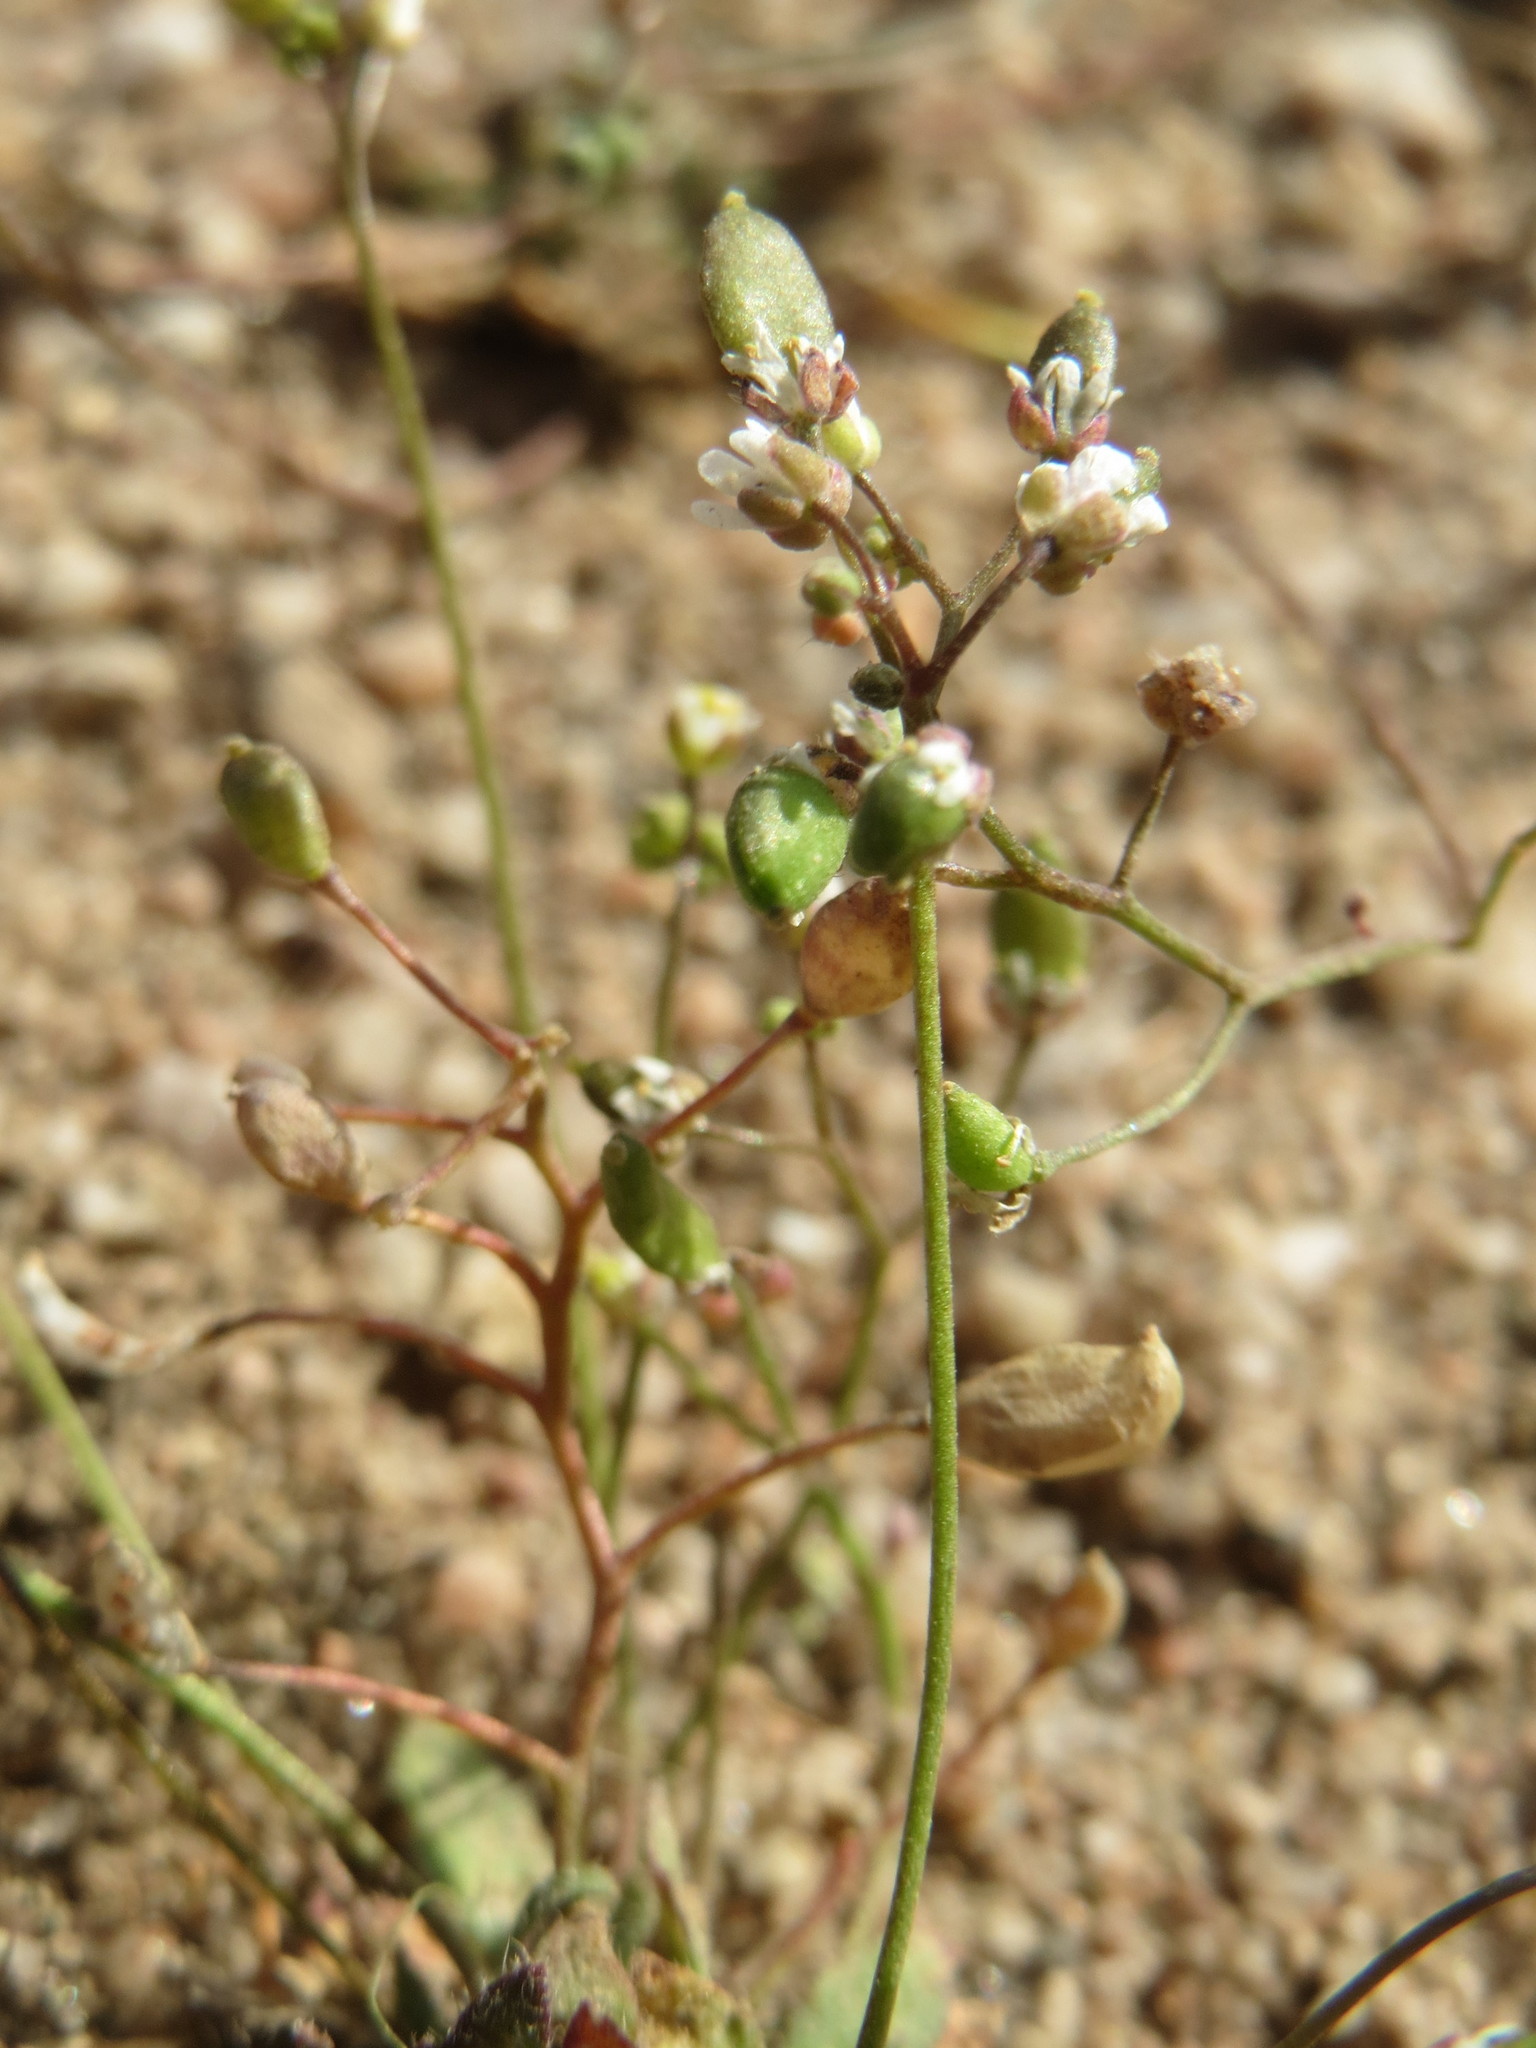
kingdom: Plantae
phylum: Tracheophyta
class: Magnoliopsida
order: Brassicales
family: Brassicaceae
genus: Draba
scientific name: Draba verna
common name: Spring draba
